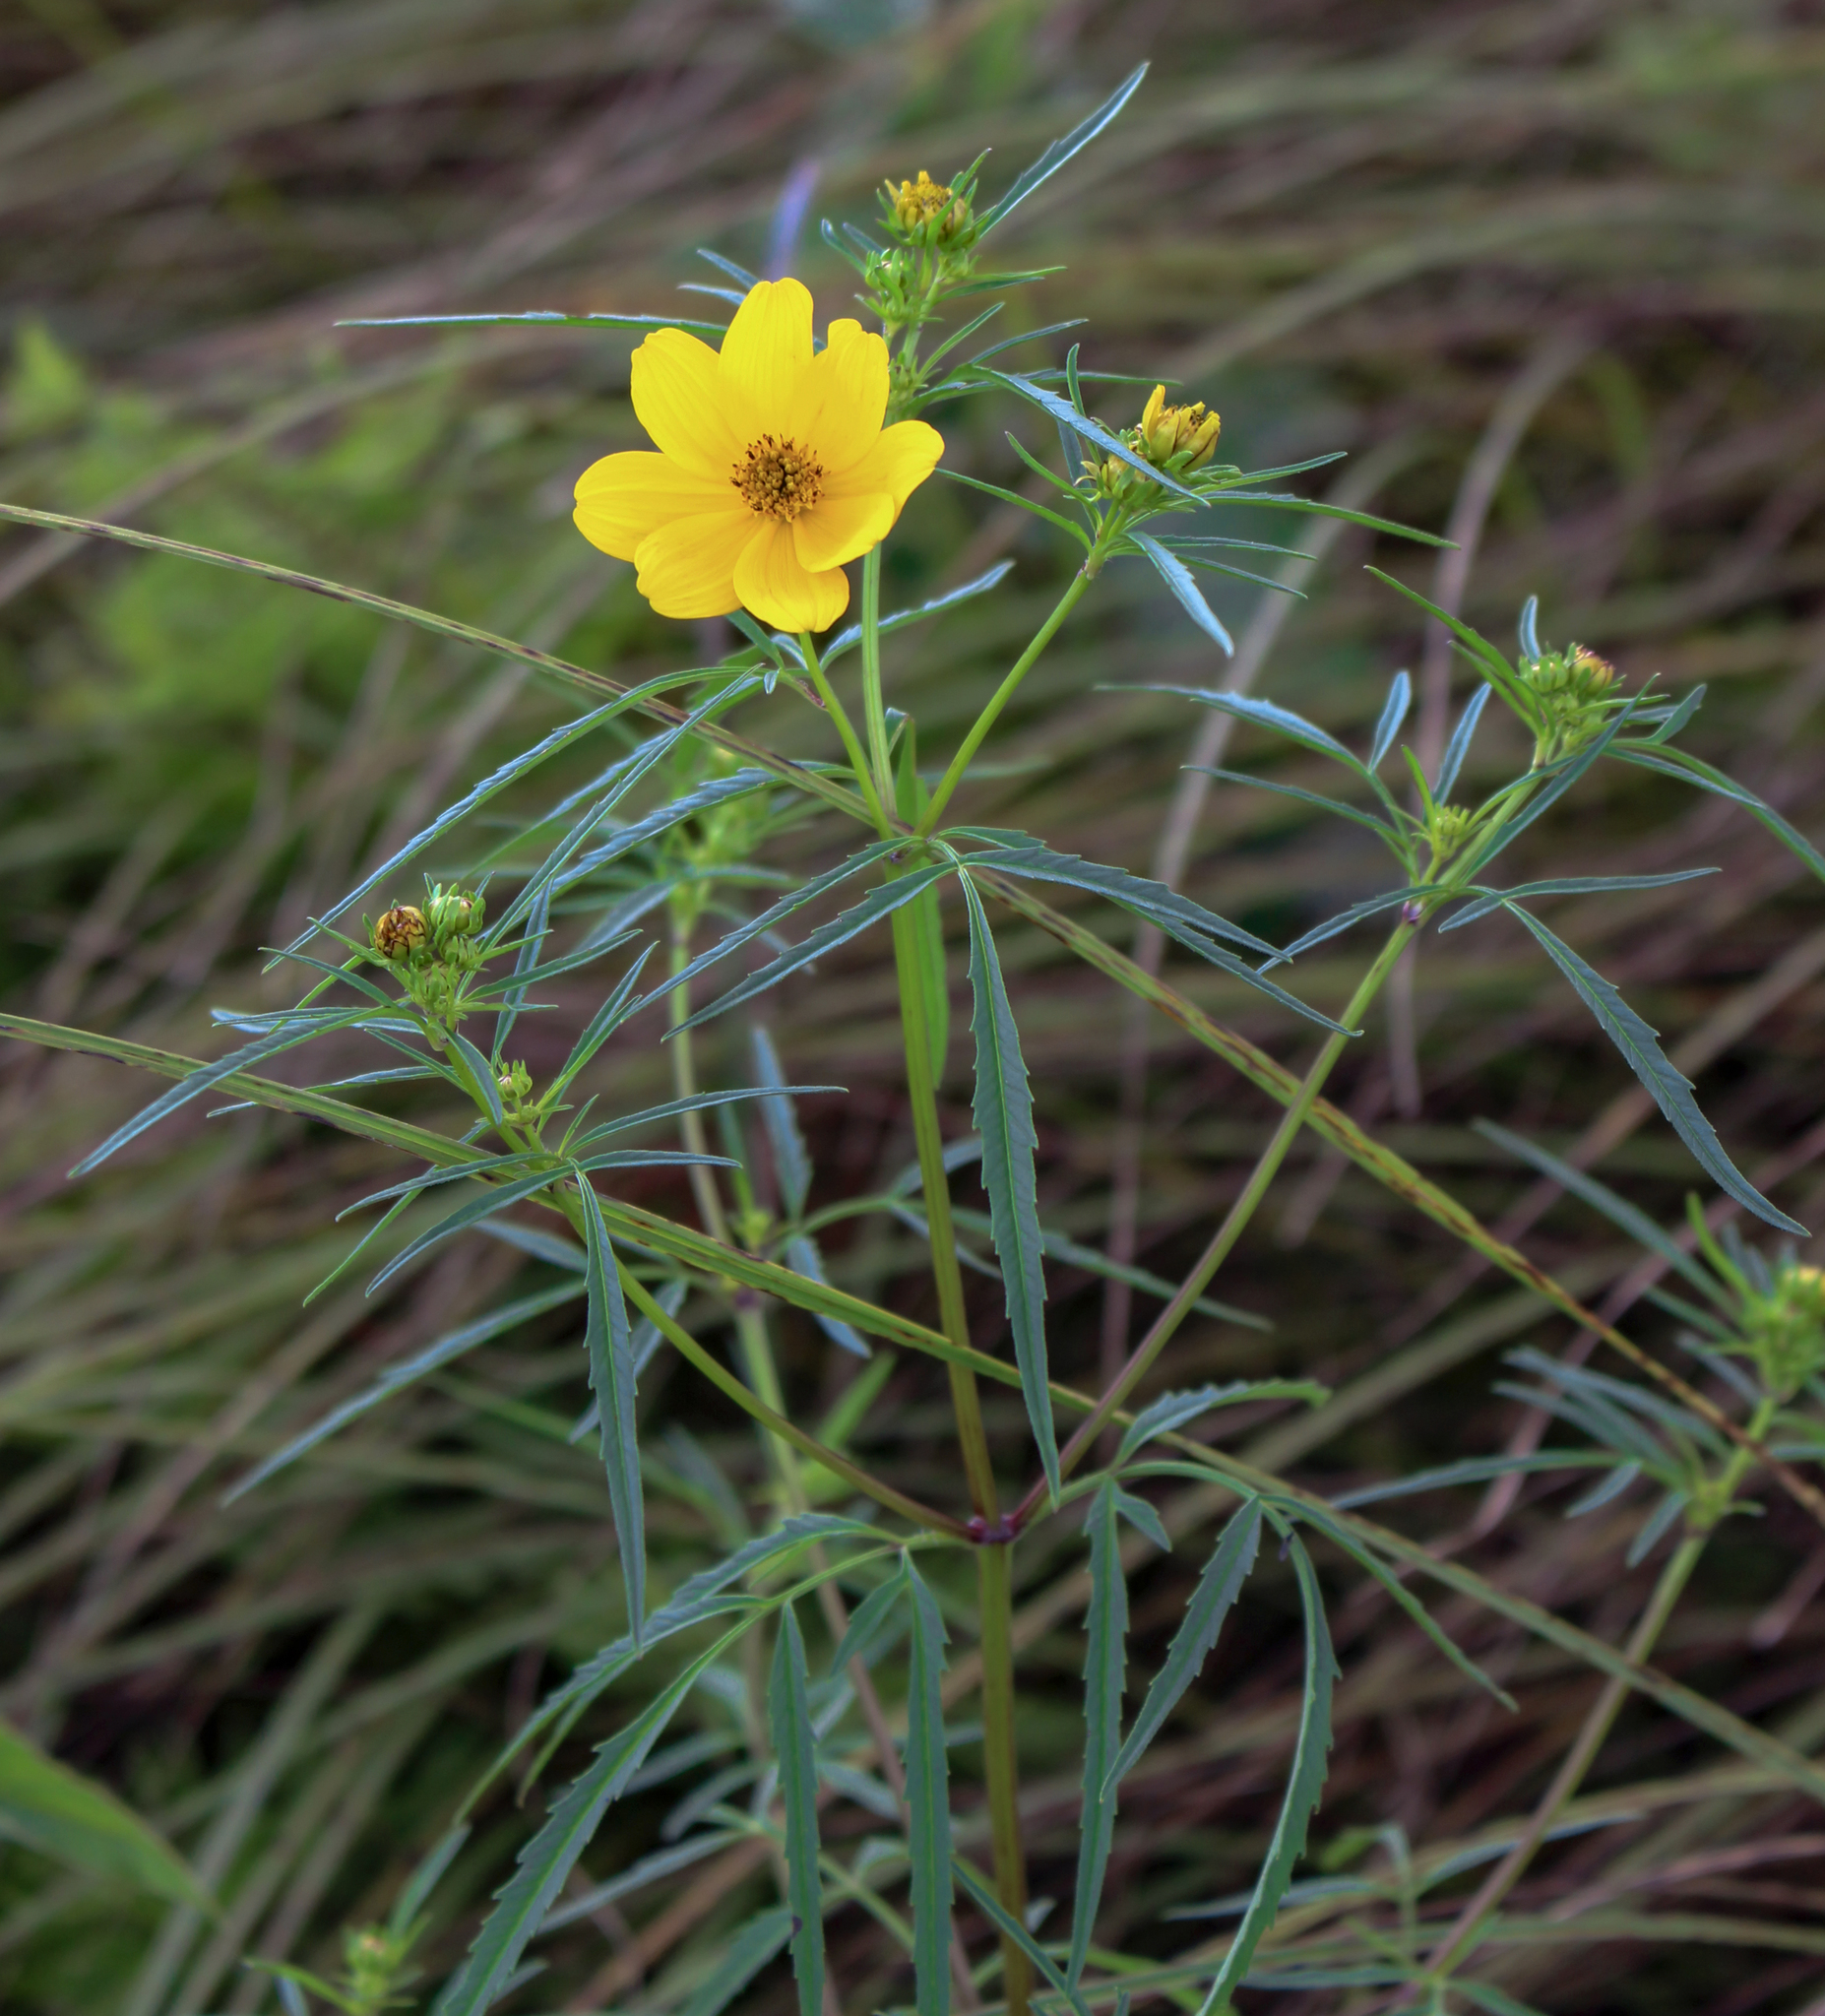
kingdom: Plantae
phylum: Tracheophyta
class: Magnoliopsida
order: Asterales
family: Asteraceae
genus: Bidens
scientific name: Bidens trichosperma
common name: Crowned beggarticks
